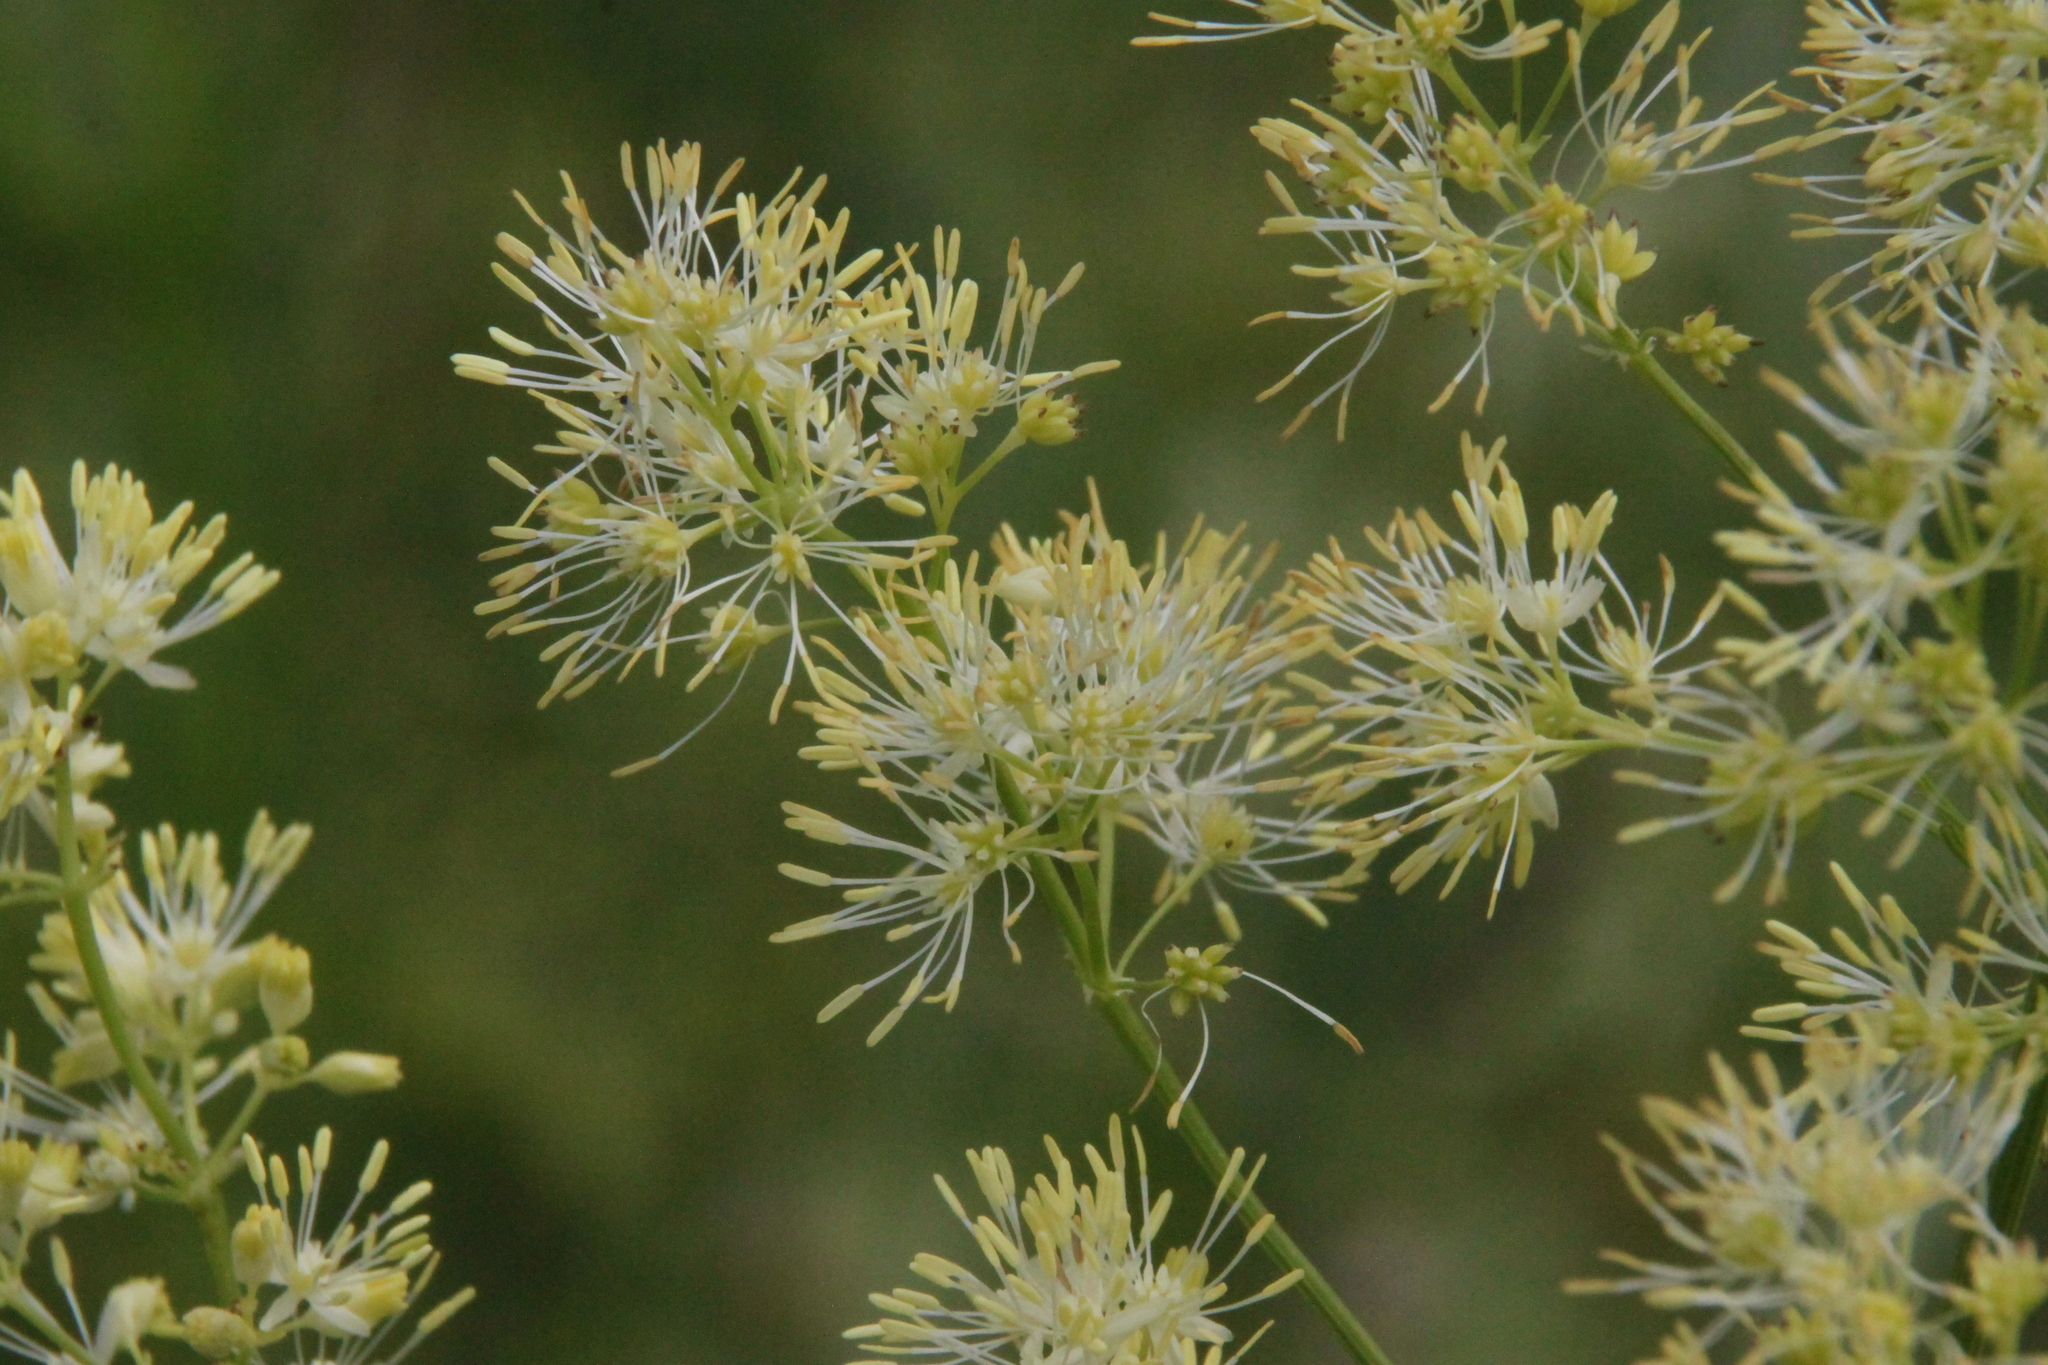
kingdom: Plantae
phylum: Tracheophyta
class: Magnoliopsida
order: Ranunculales
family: Ranunculaceae
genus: Thalictrum
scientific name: Thalictrum lucidum
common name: Shining meadow-rue
